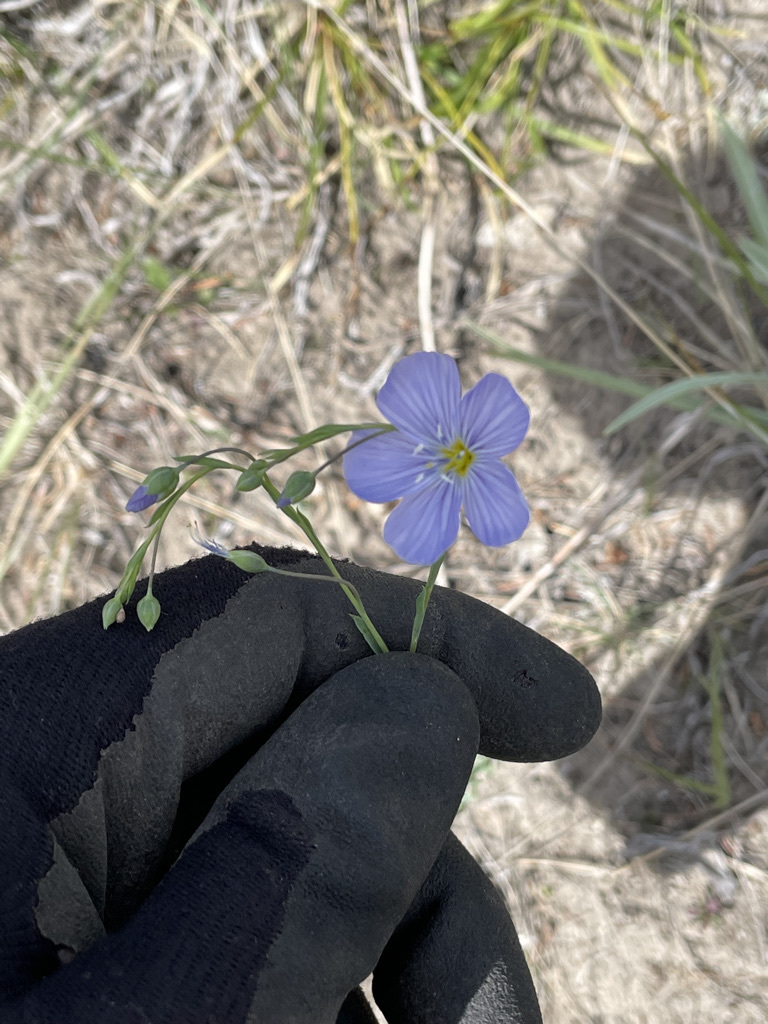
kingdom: Plantae
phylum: Tracheophyta
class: Magnoliopsida
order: Malpighiales
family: Linaceae
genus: Linum
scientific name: Linum lewisii
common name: Prairie flax
